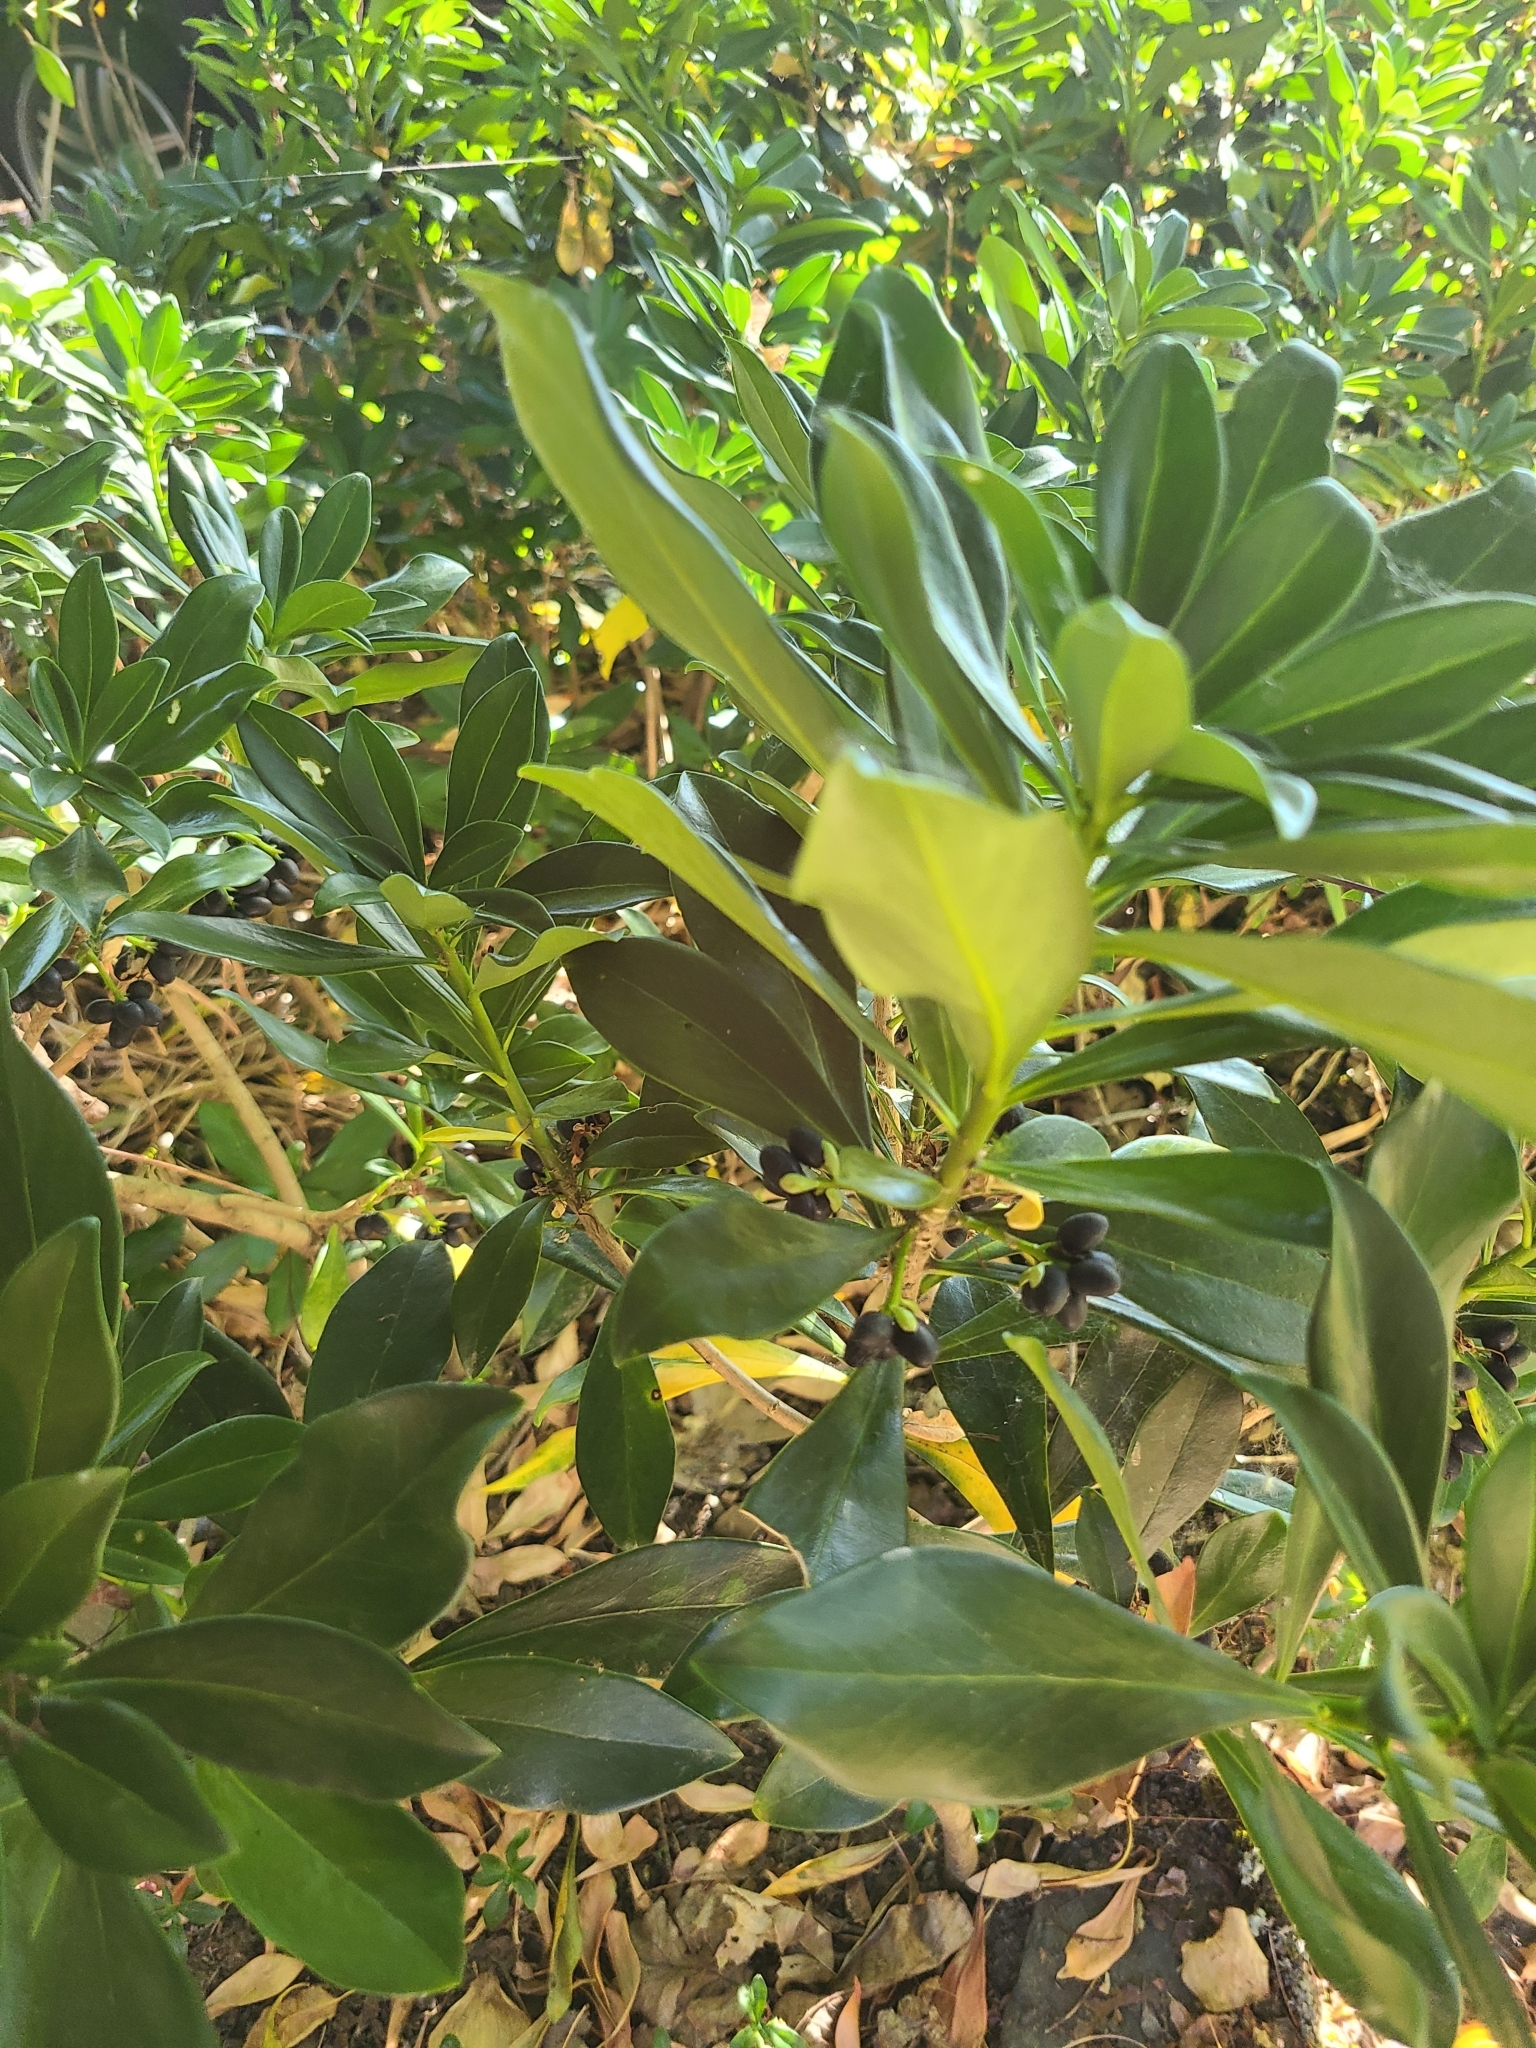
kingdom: Plantae
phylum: Tracheophyta
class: Magnoliopsida
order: Malvales
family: Thymelaeaceae
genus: Daphne
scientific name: Daphne laureola
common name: Spurge-laurel
